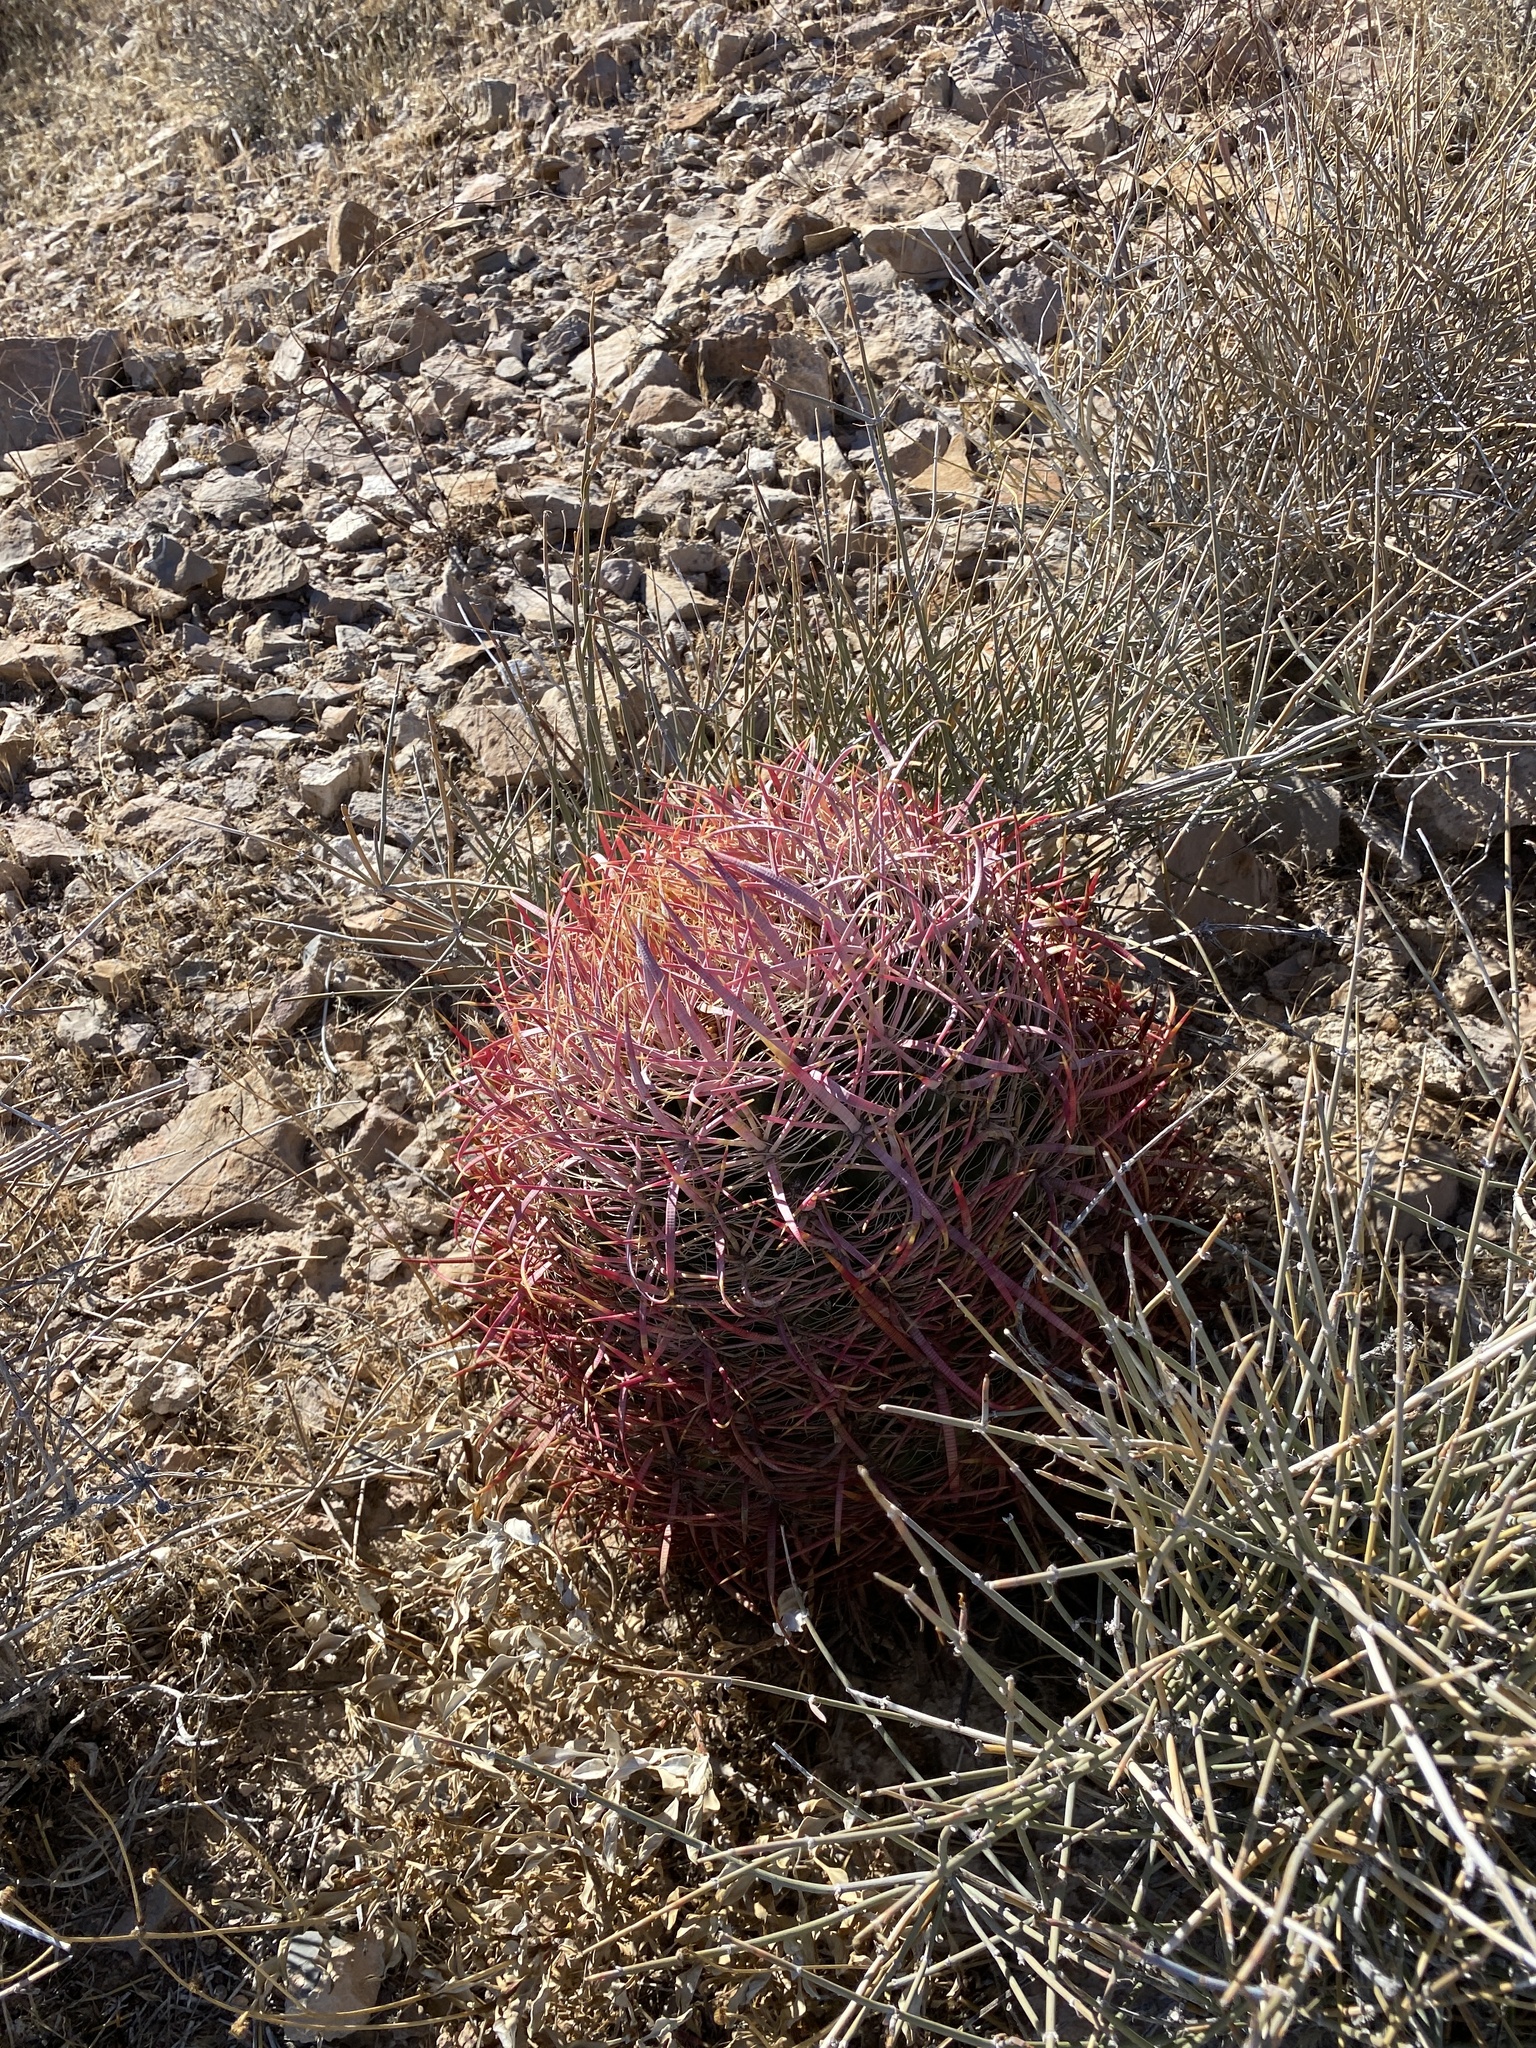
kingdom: Plantae
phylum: Tracheophyta
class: Magnoliopsida
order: Caryophyllales
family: Cactaceae
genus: Ferocactus
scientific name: Ferocactus cylindraceus
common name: California barrel cactus
